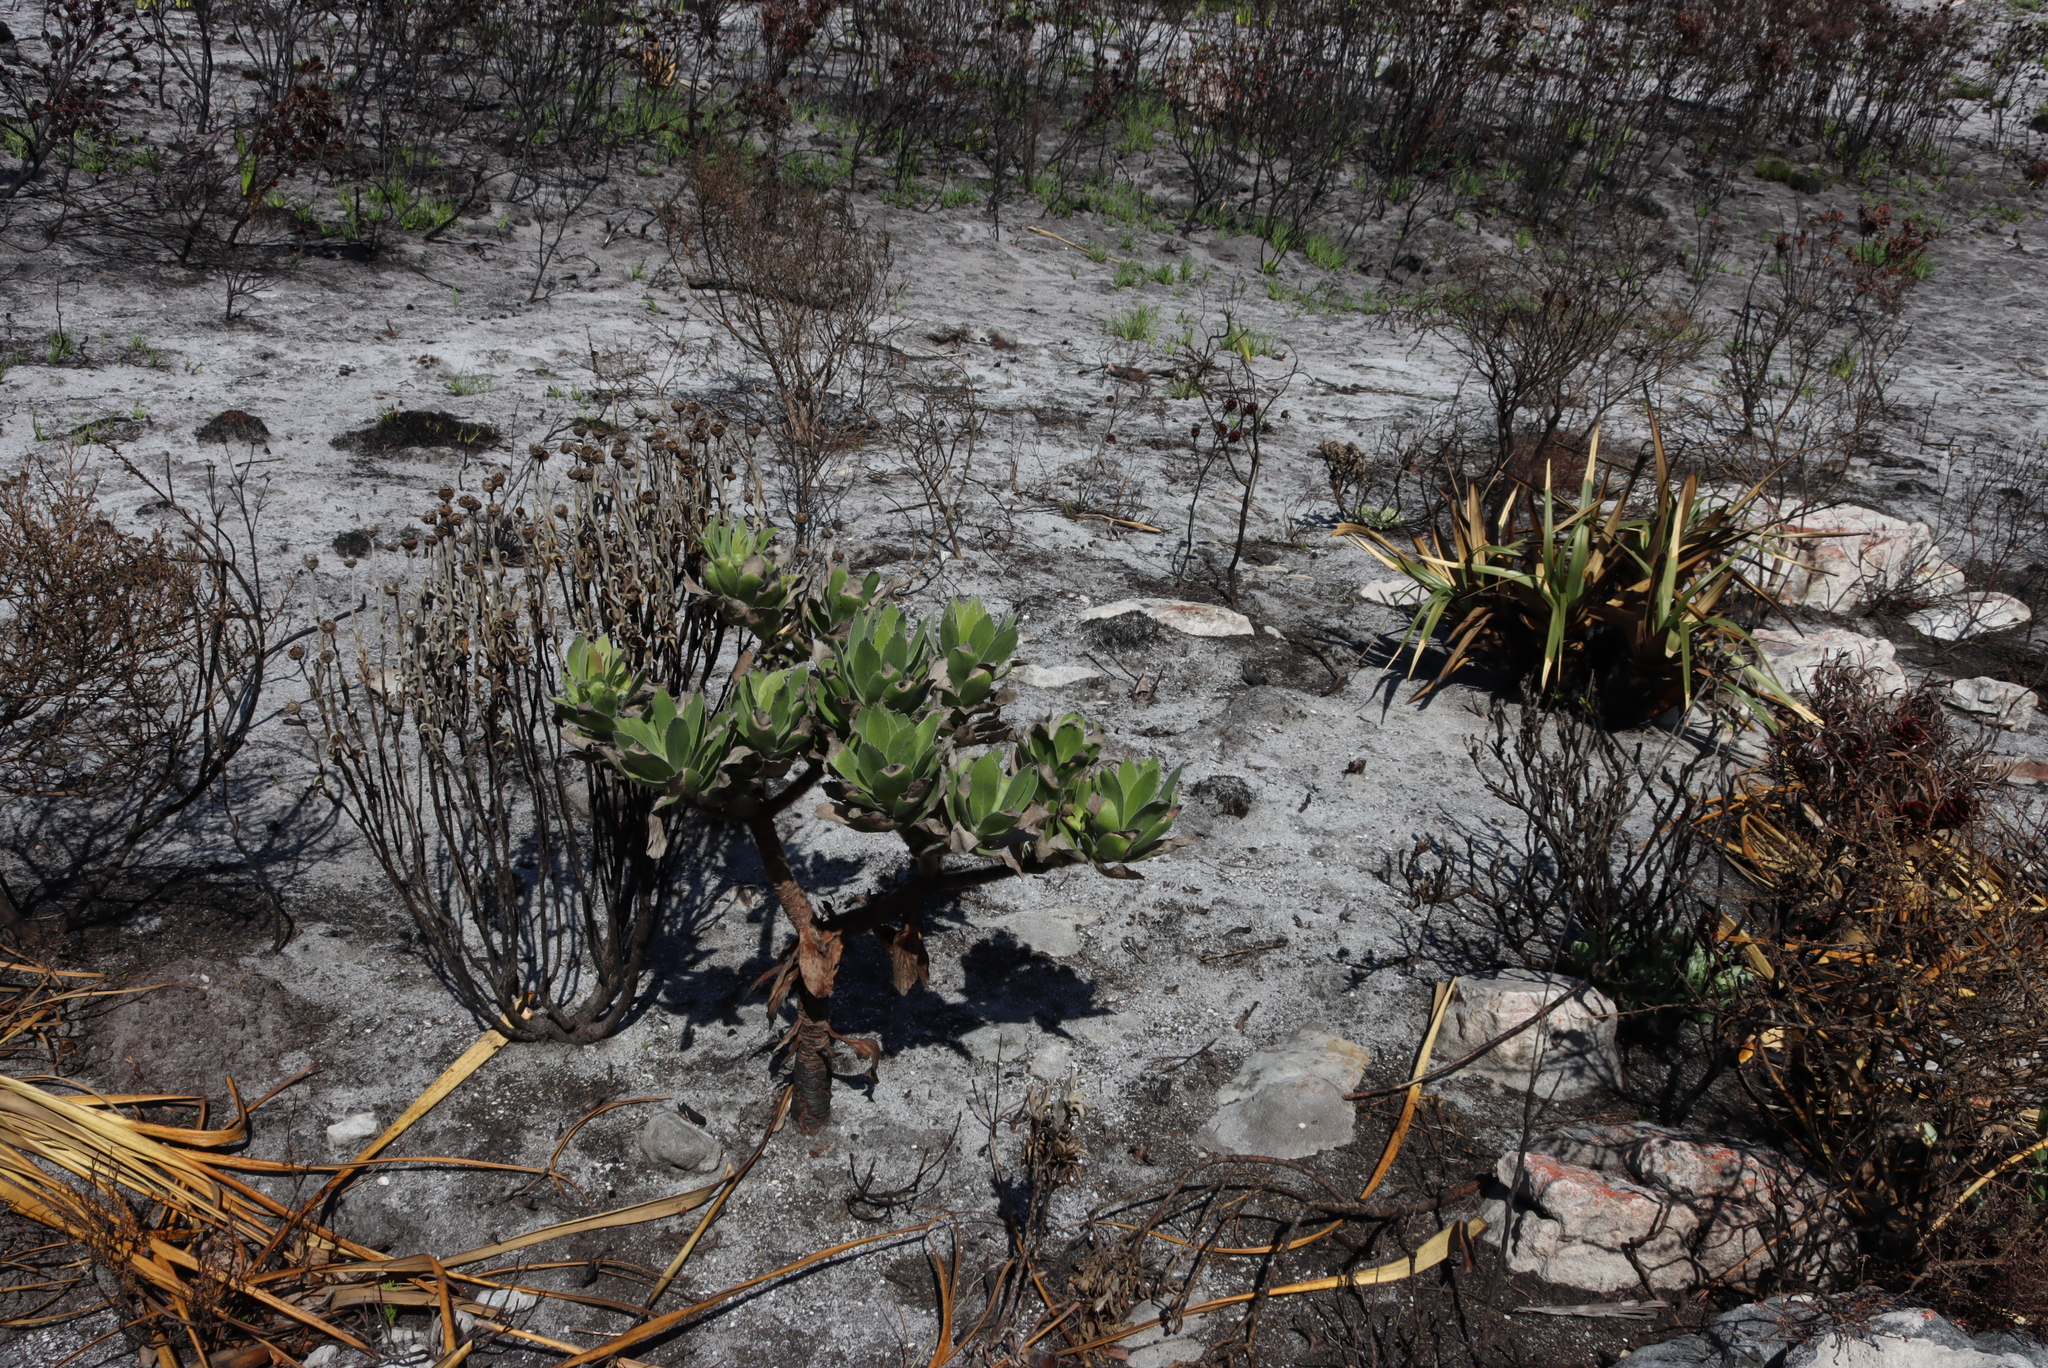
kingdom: Plantae
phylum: Tracheophyta
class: Magnoliopsida
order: Proteales
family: Proteaceae
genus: Leucospermum
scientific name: Leucospermum conocarpodendron
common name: Tree pincushion
